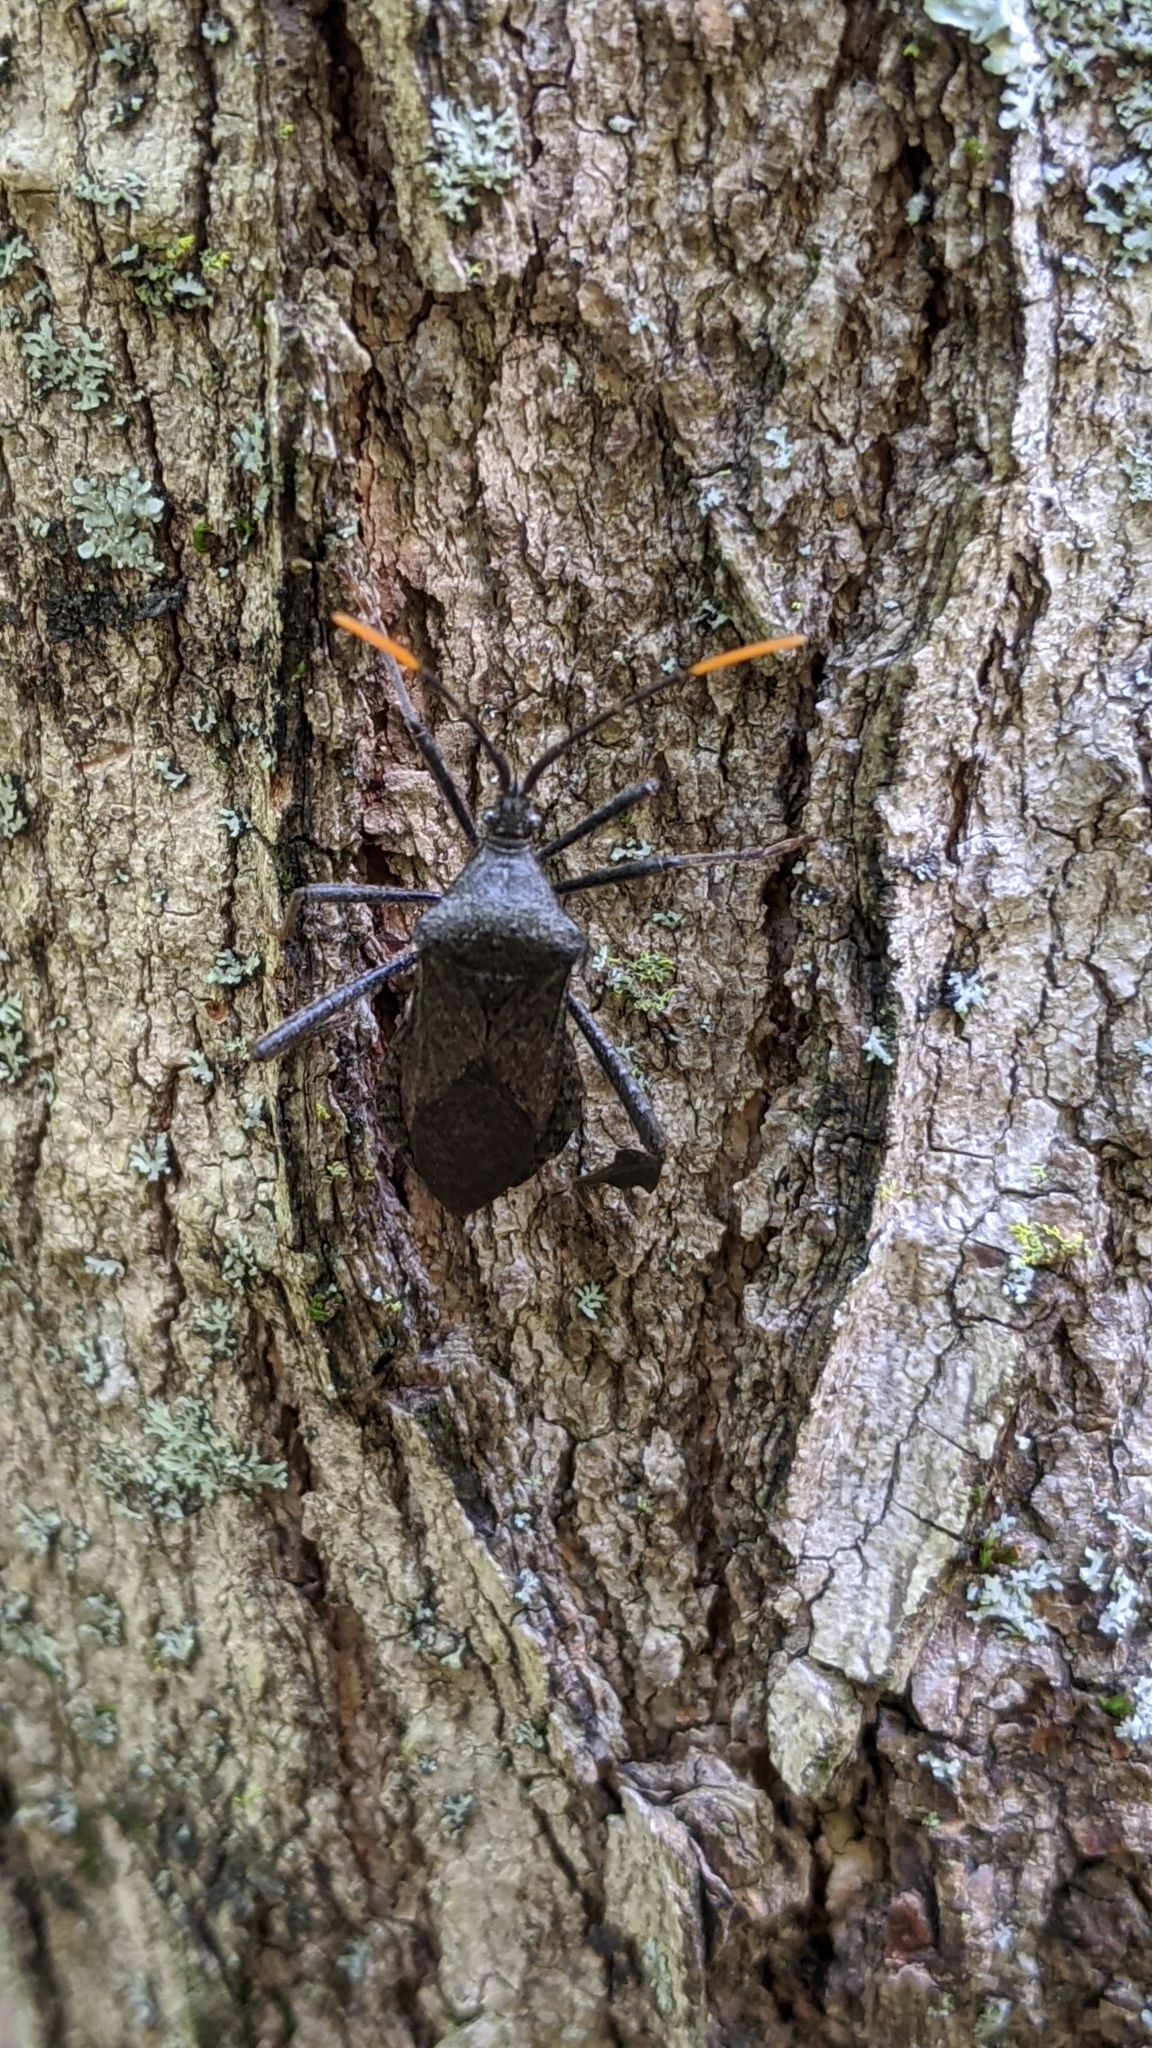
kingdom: Animalia
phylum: Arthropoda
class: Insecta
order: Hemiptera
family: Coreidae
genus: Acanthocephala
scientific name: Acanthocephala terminalis
